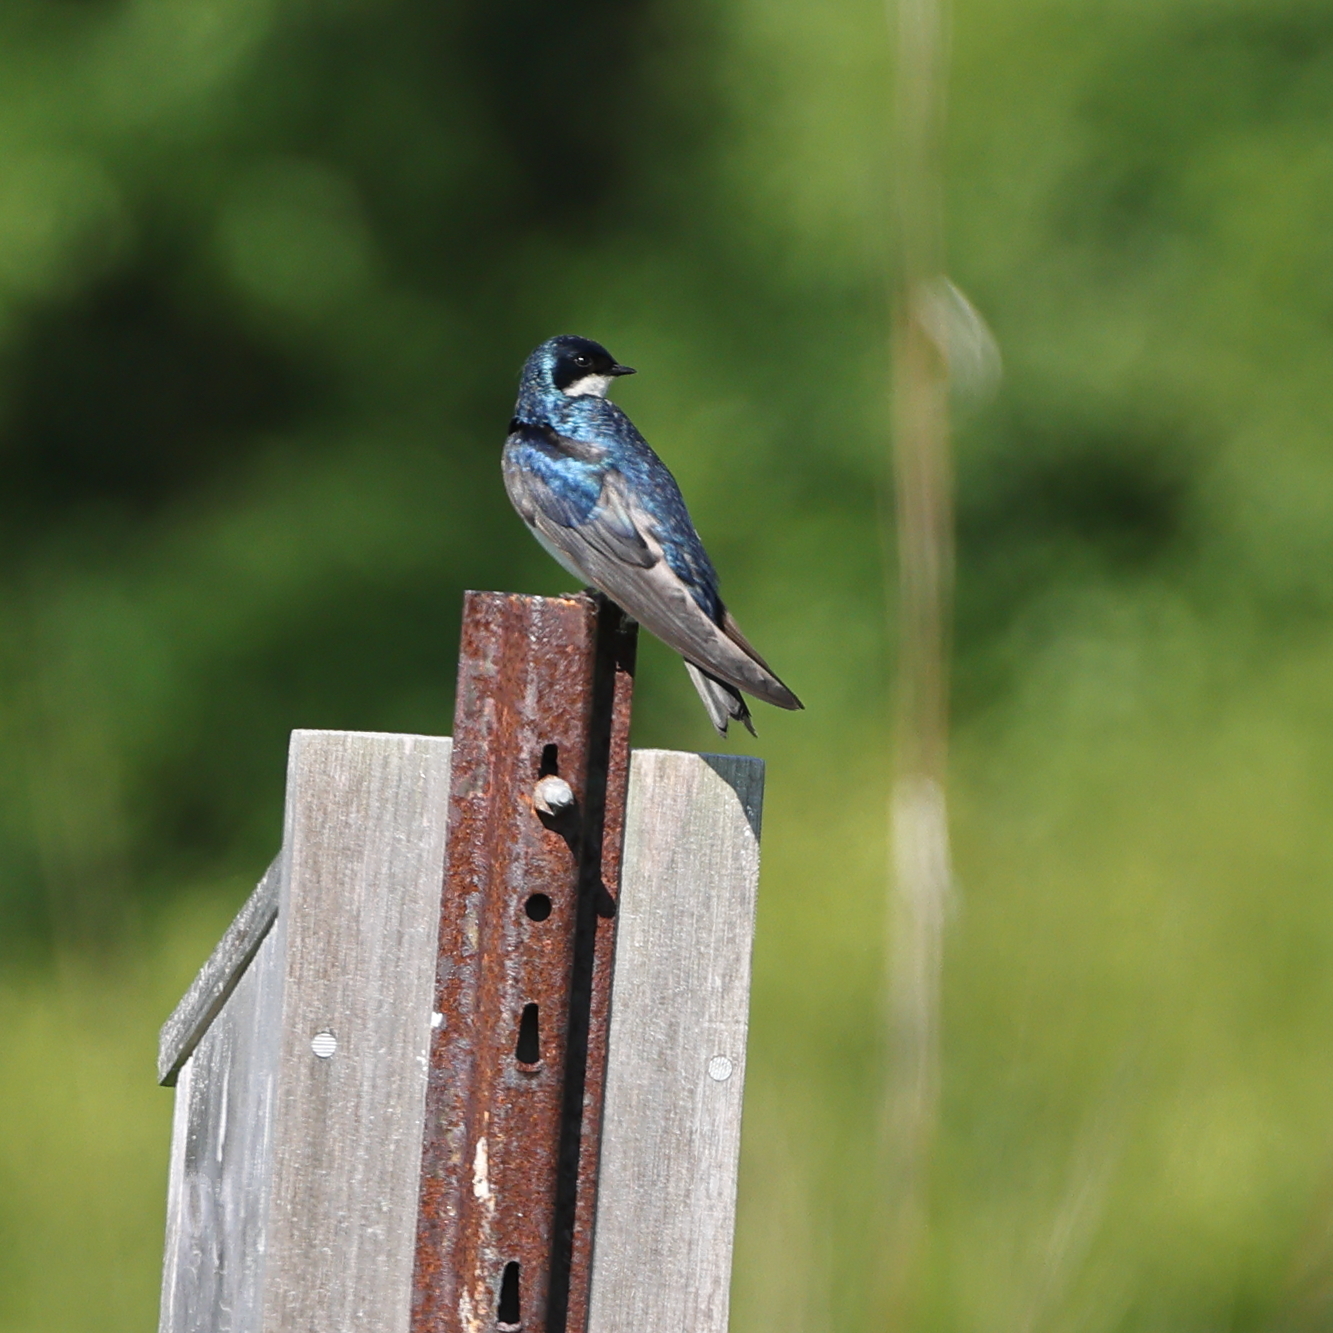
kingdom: Animalia
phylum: Chordata
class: Aves
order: Passeriformes
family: Hirundinidae
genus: Tachycineta
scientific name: Tachycineta bicolor
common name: Tree swallow
